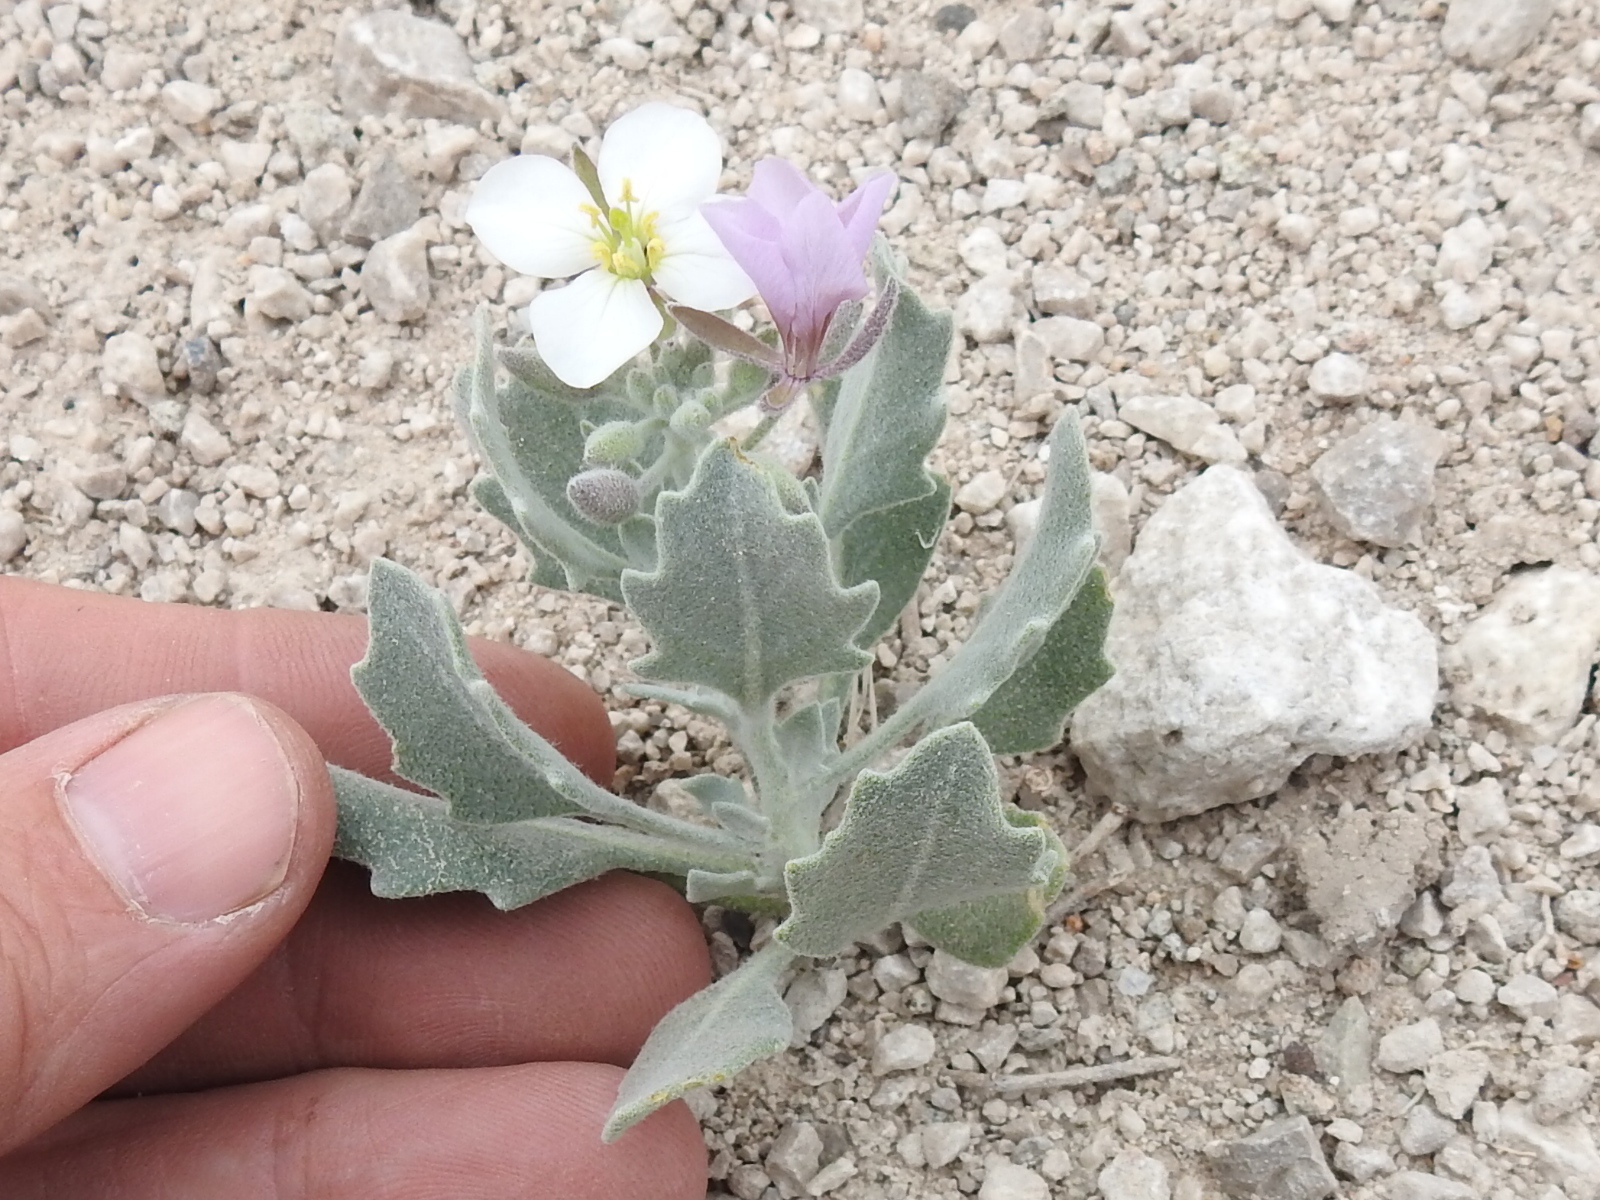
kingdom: Plantae
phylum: Tracheophyta
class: Magnoliopsida
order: Brassicales
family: Brassicaceae
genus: Nerisyrenia
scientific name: Nerisyrenia camporum
